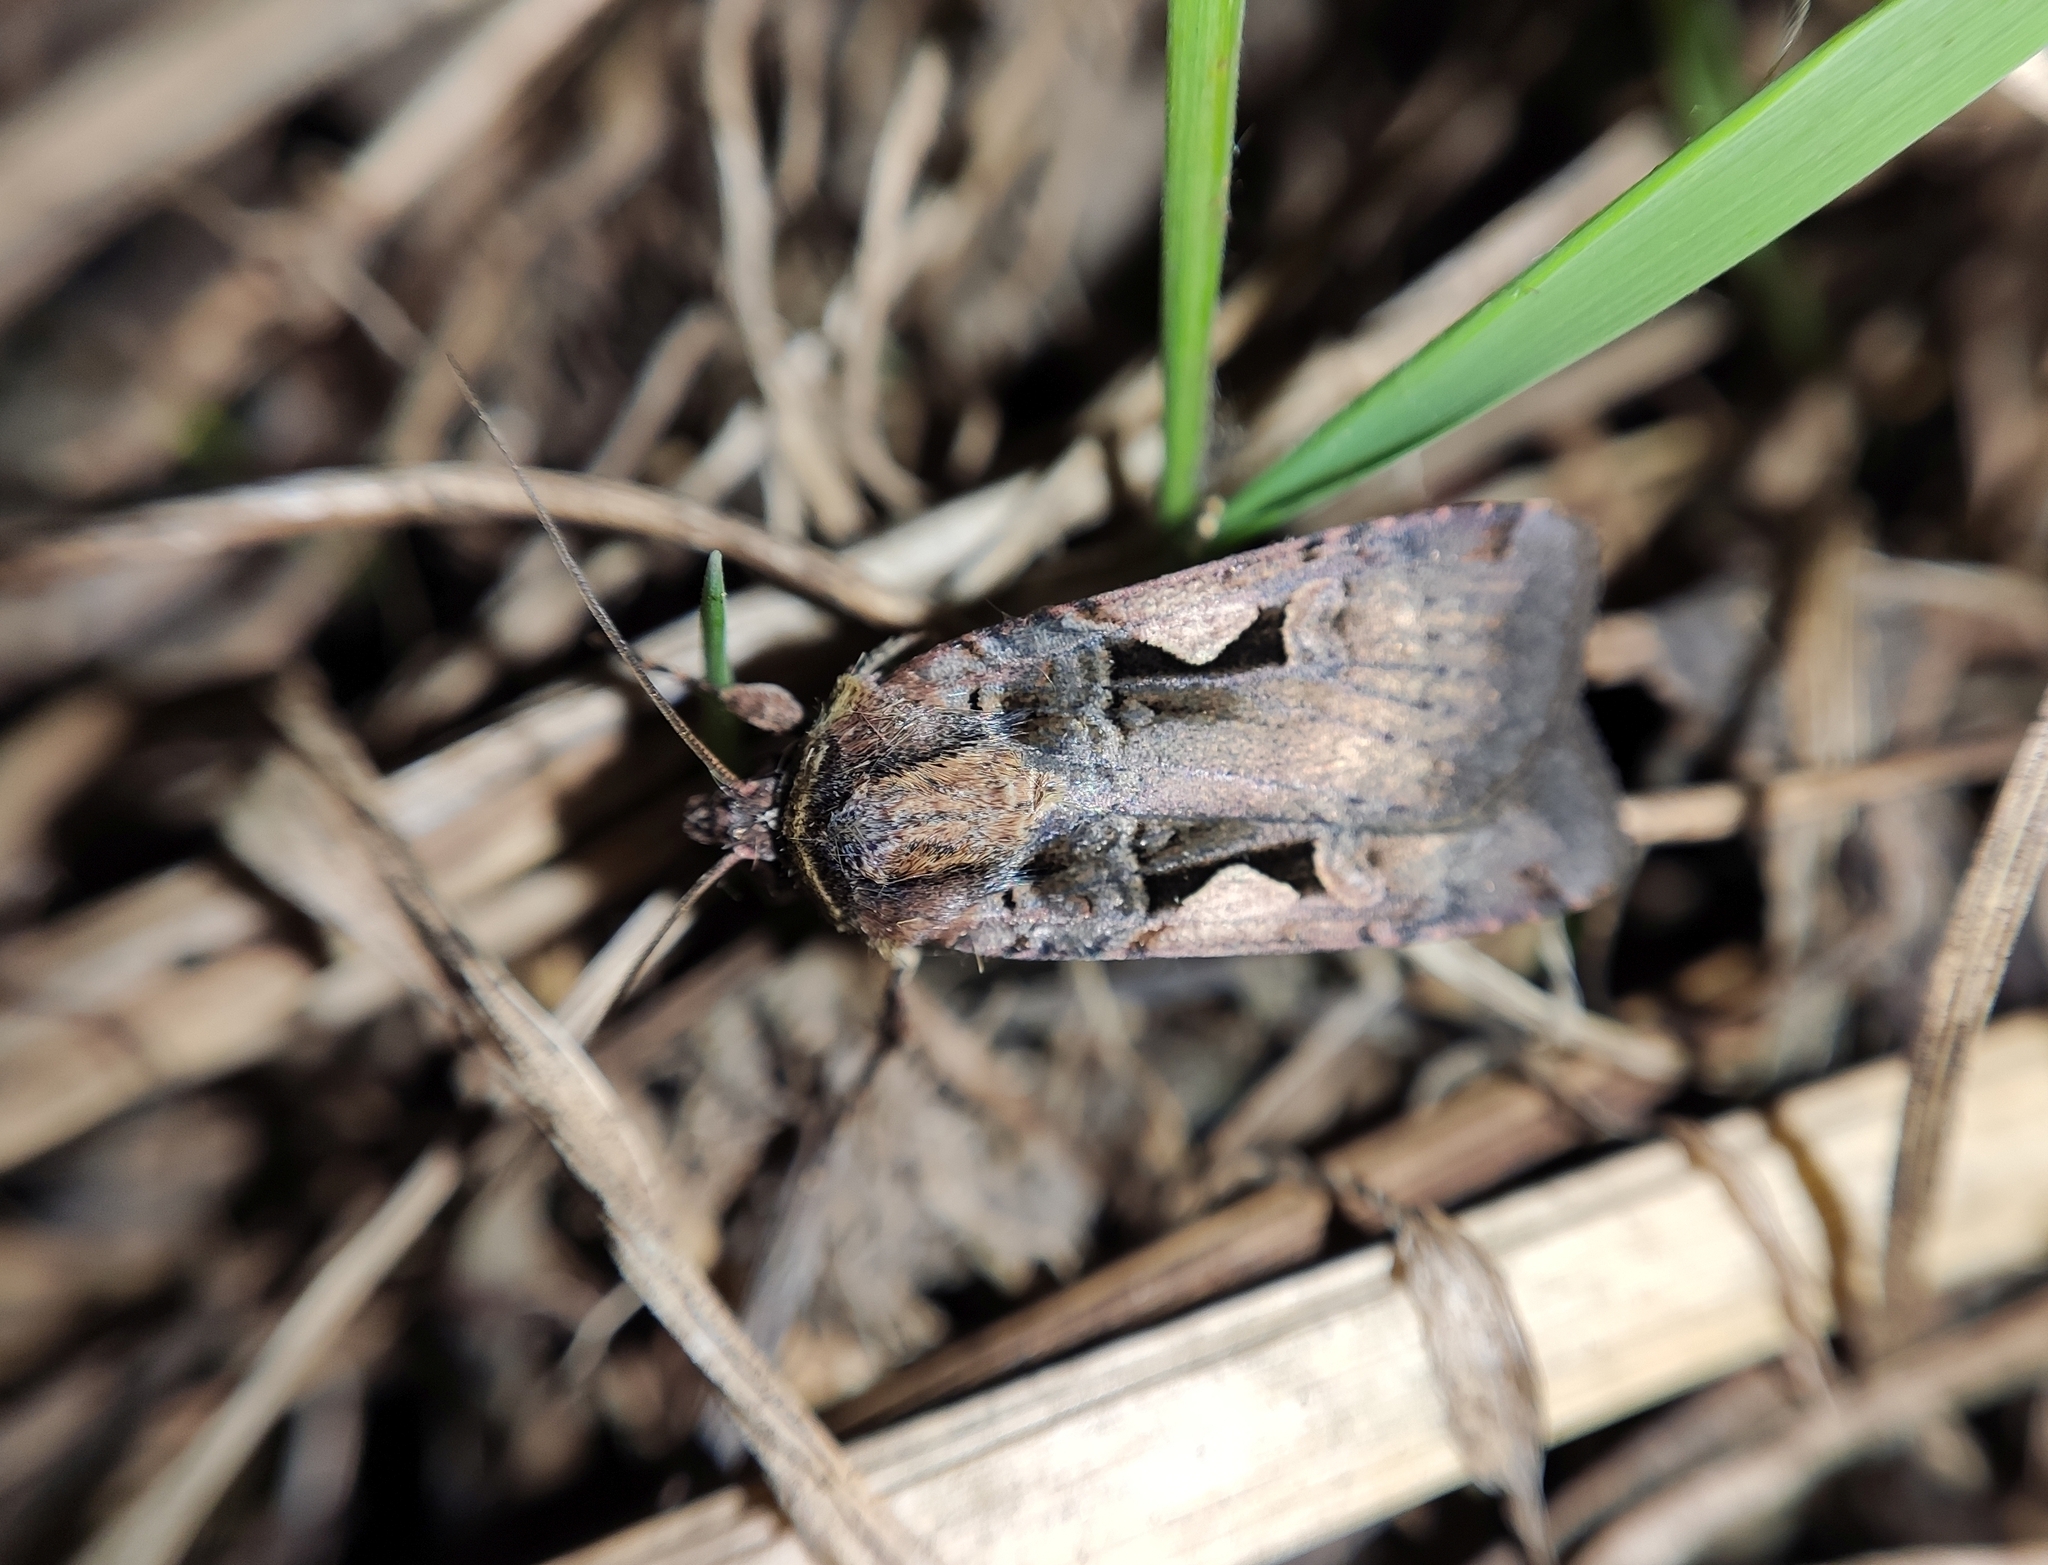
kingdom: Animalia
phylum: Arthropoda
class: Insecta
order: Lepidoptera
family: Noctuidae
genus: Xestia
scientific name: Xestia c-nigrum
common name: Setaceous hebrew character
